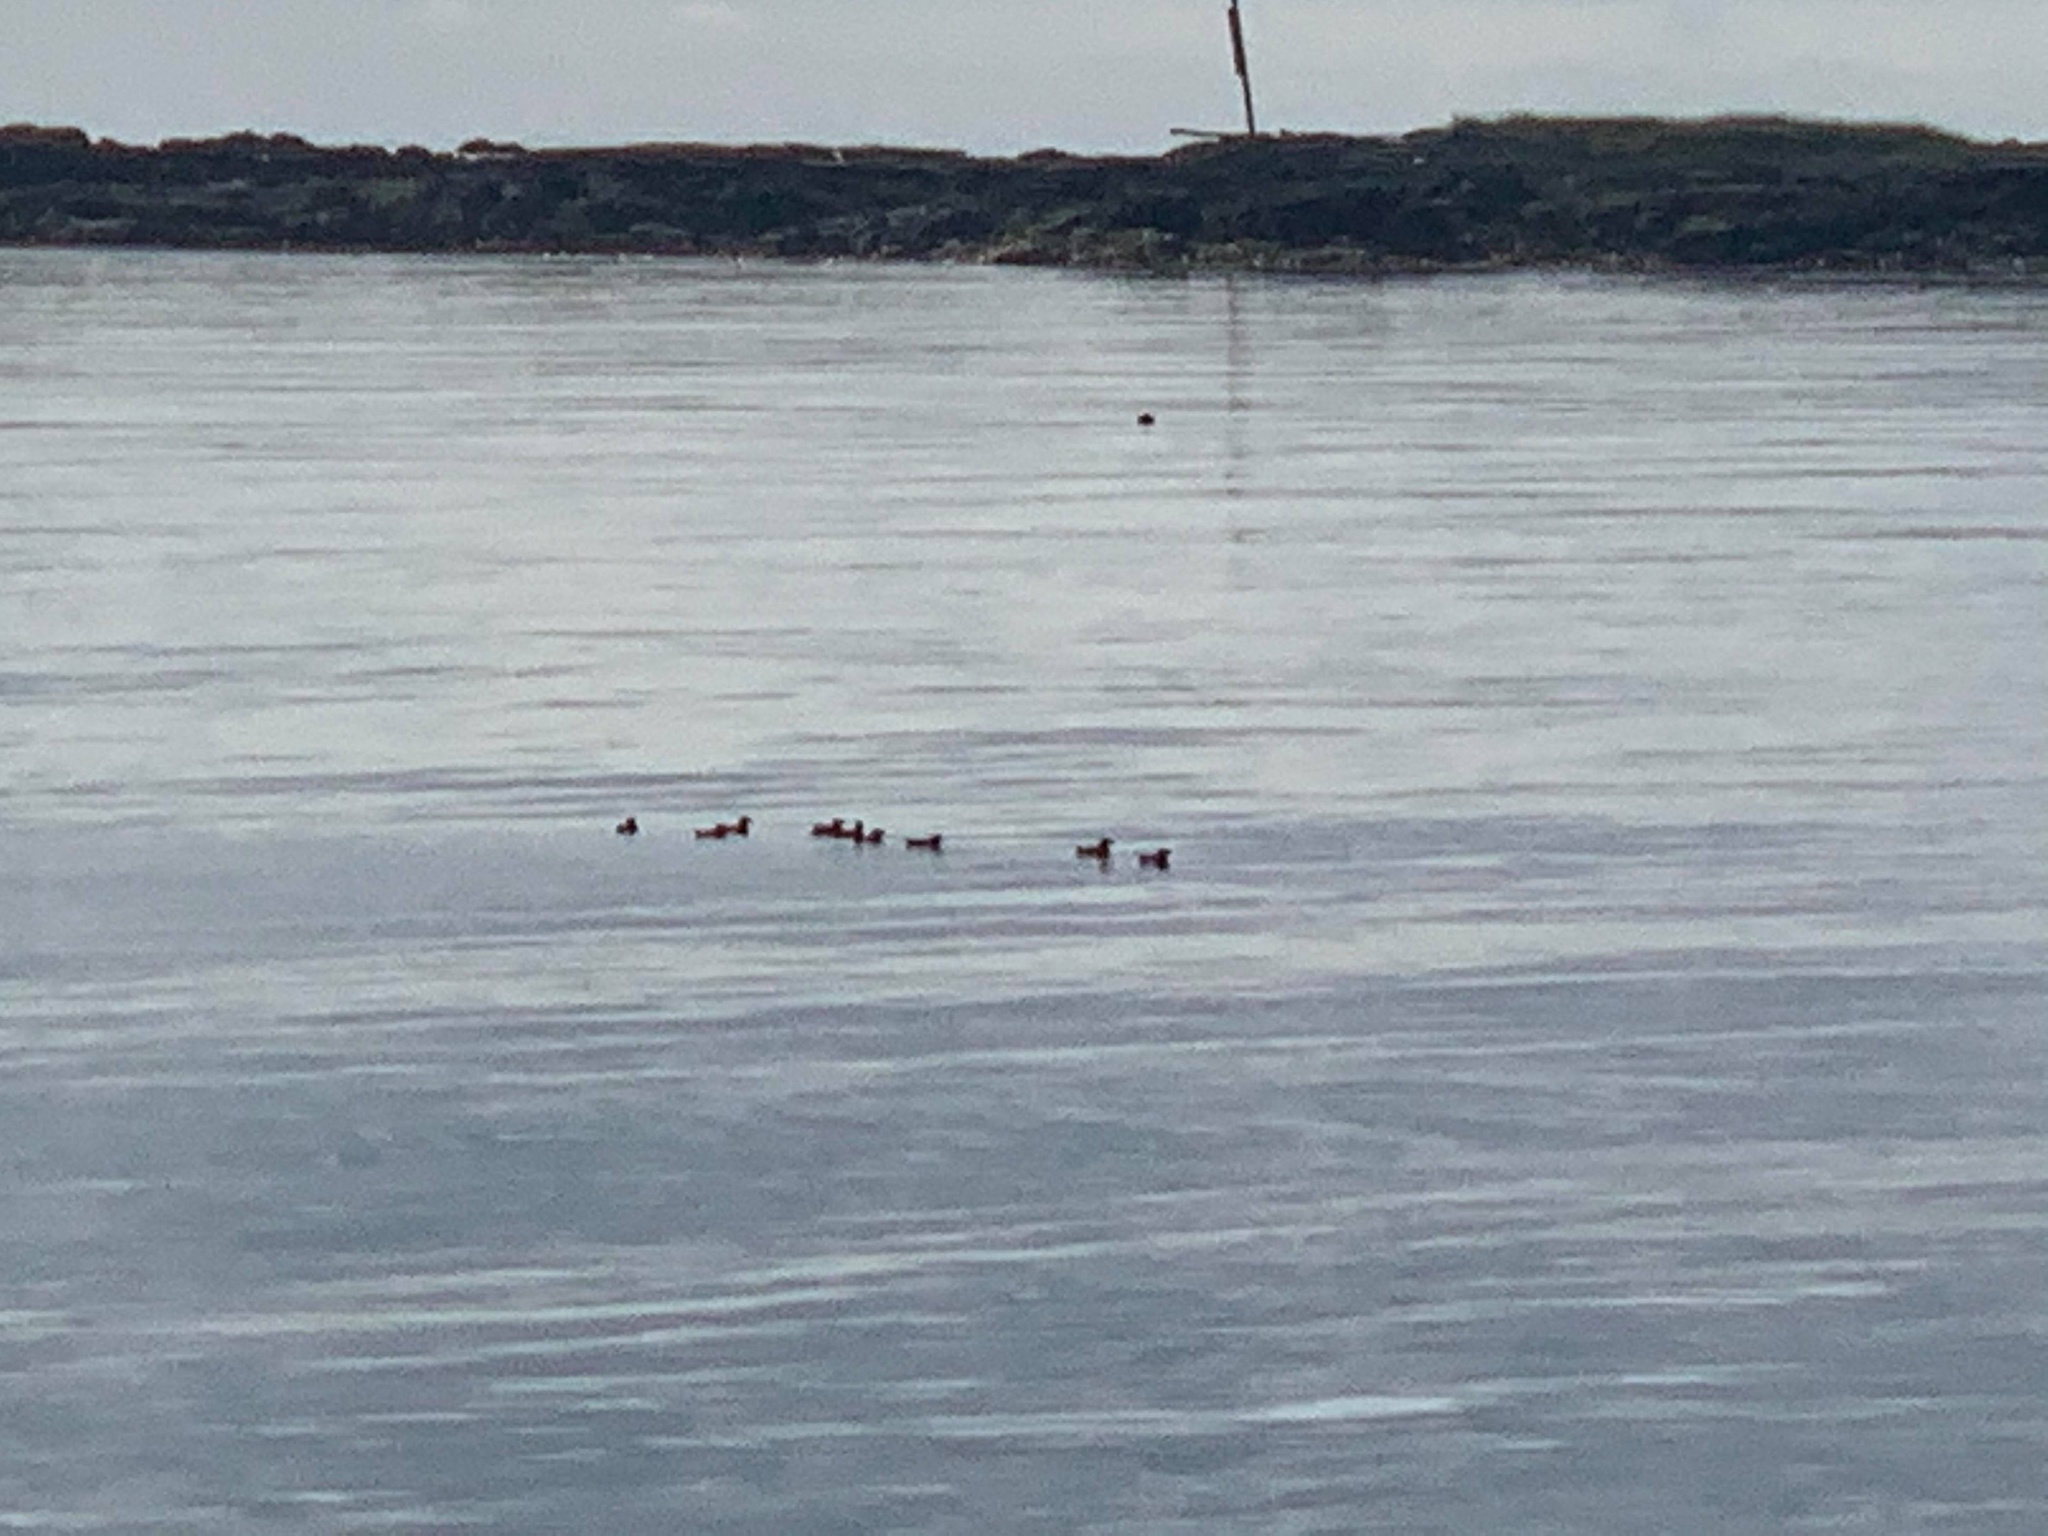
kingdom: Animalia
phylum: Chordata
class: Aves
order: Charadriiformes
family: Alcidae
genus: Cerorhinca
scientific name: Cerorhinca monocerata
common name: Rhinoceros auklet
